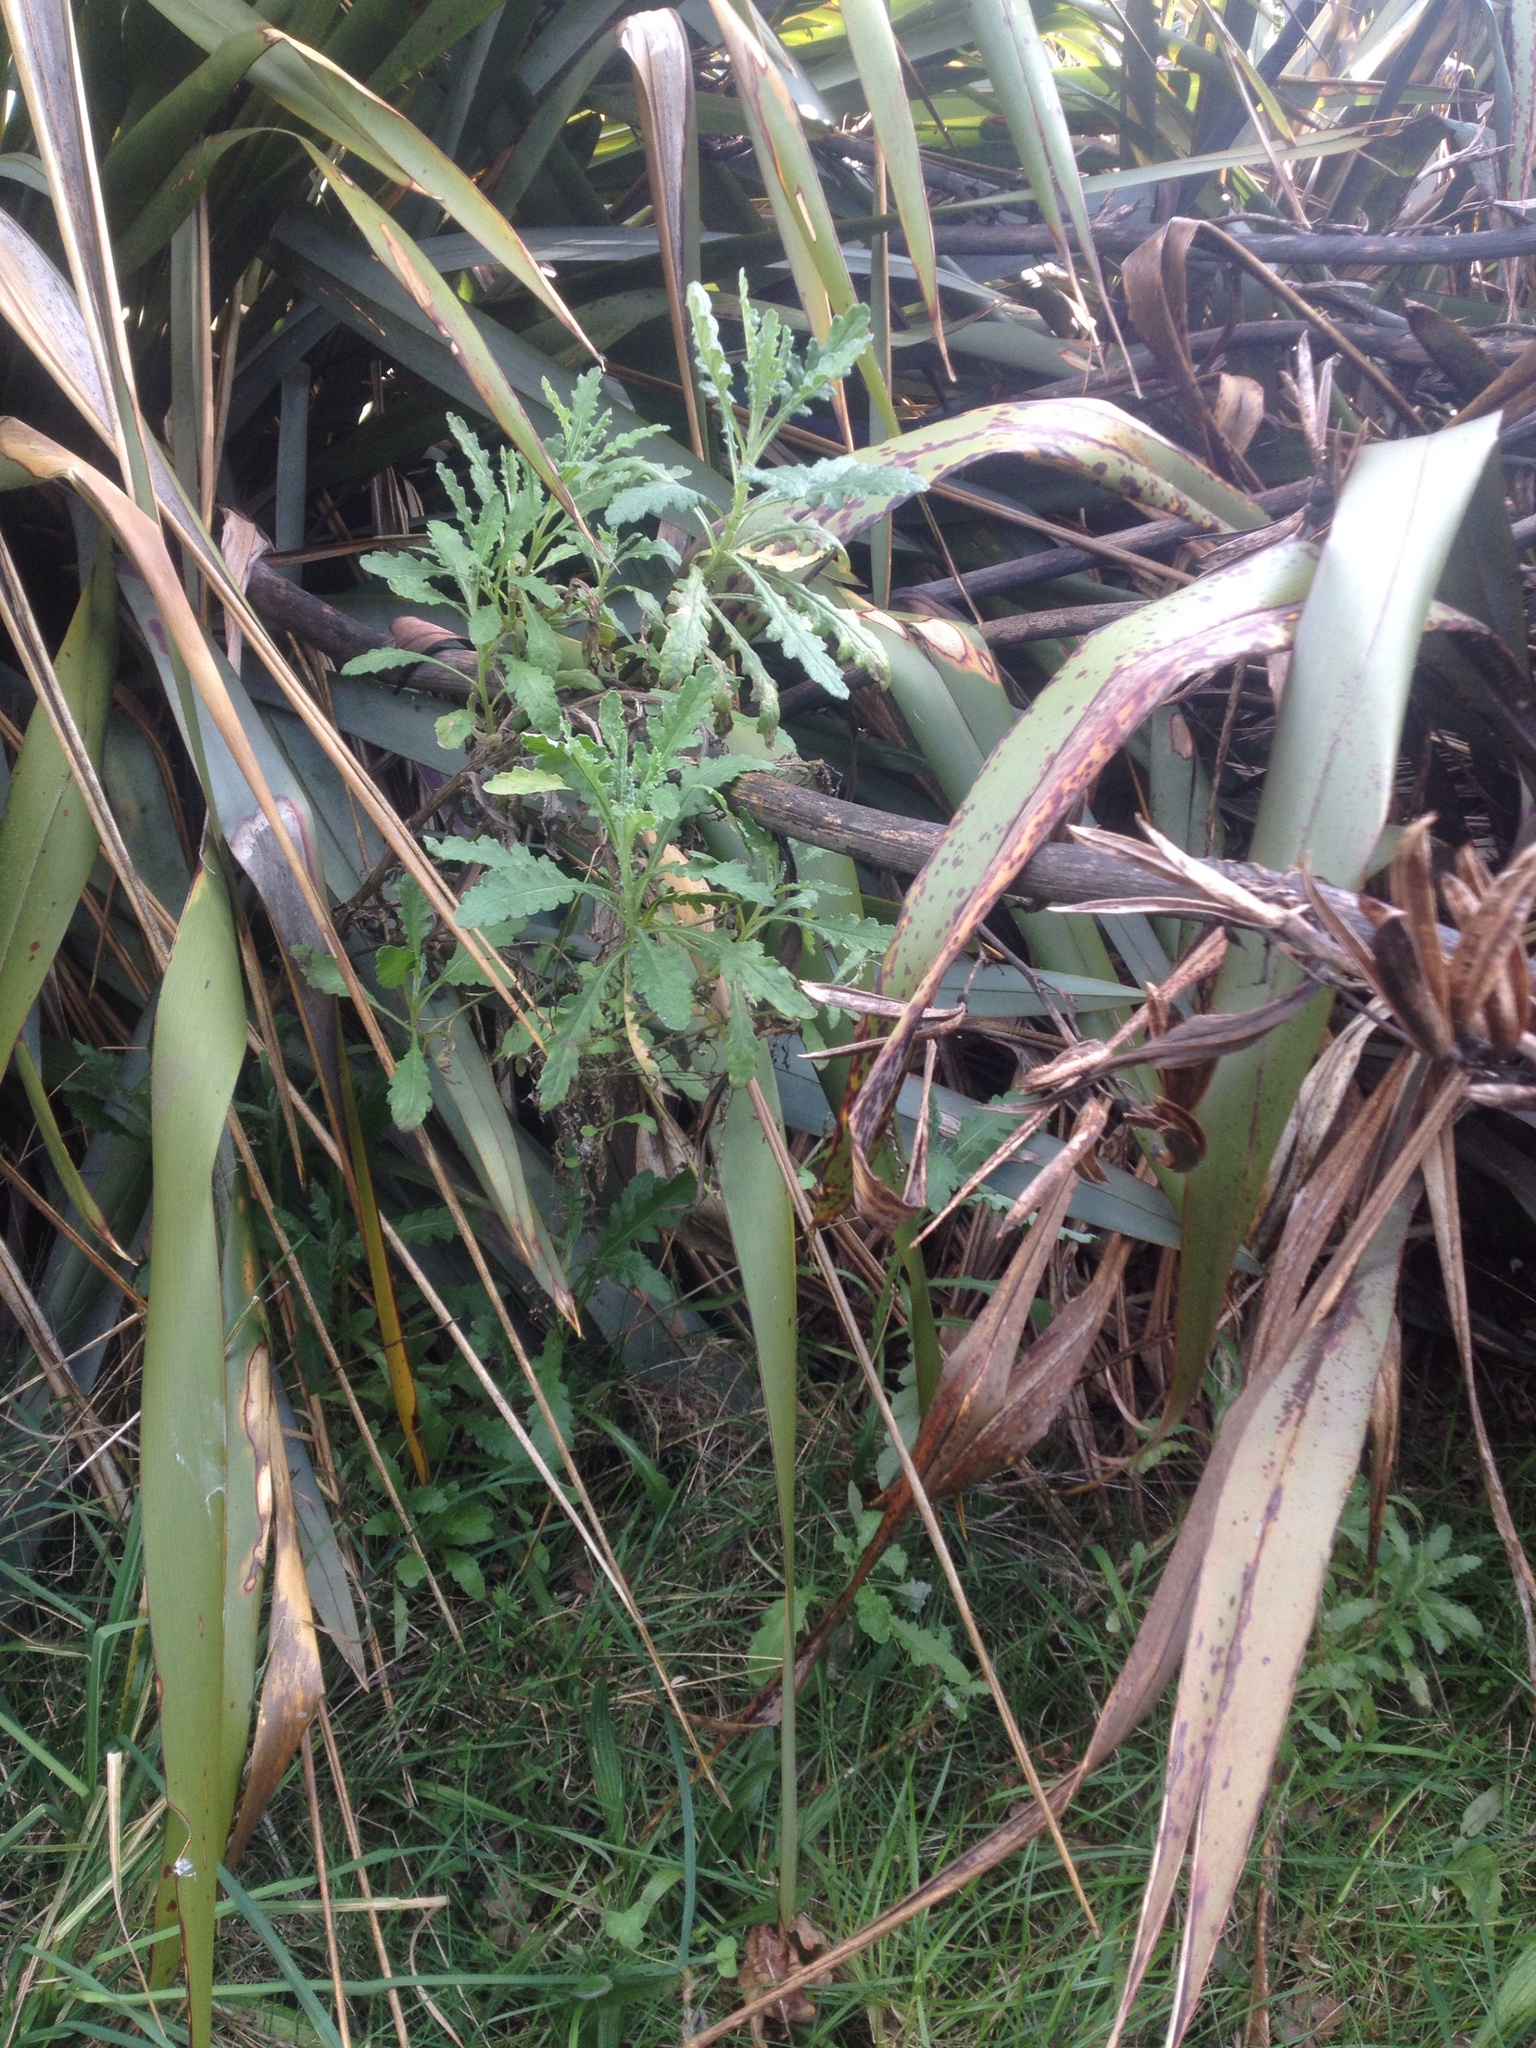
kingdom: Plantae
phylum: Tracheophyta
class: Magnoliopsida
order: Asterales
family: Asteraceae
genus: Senecio
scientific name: Senecio glomeratus
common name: Cutleaf burnweed
